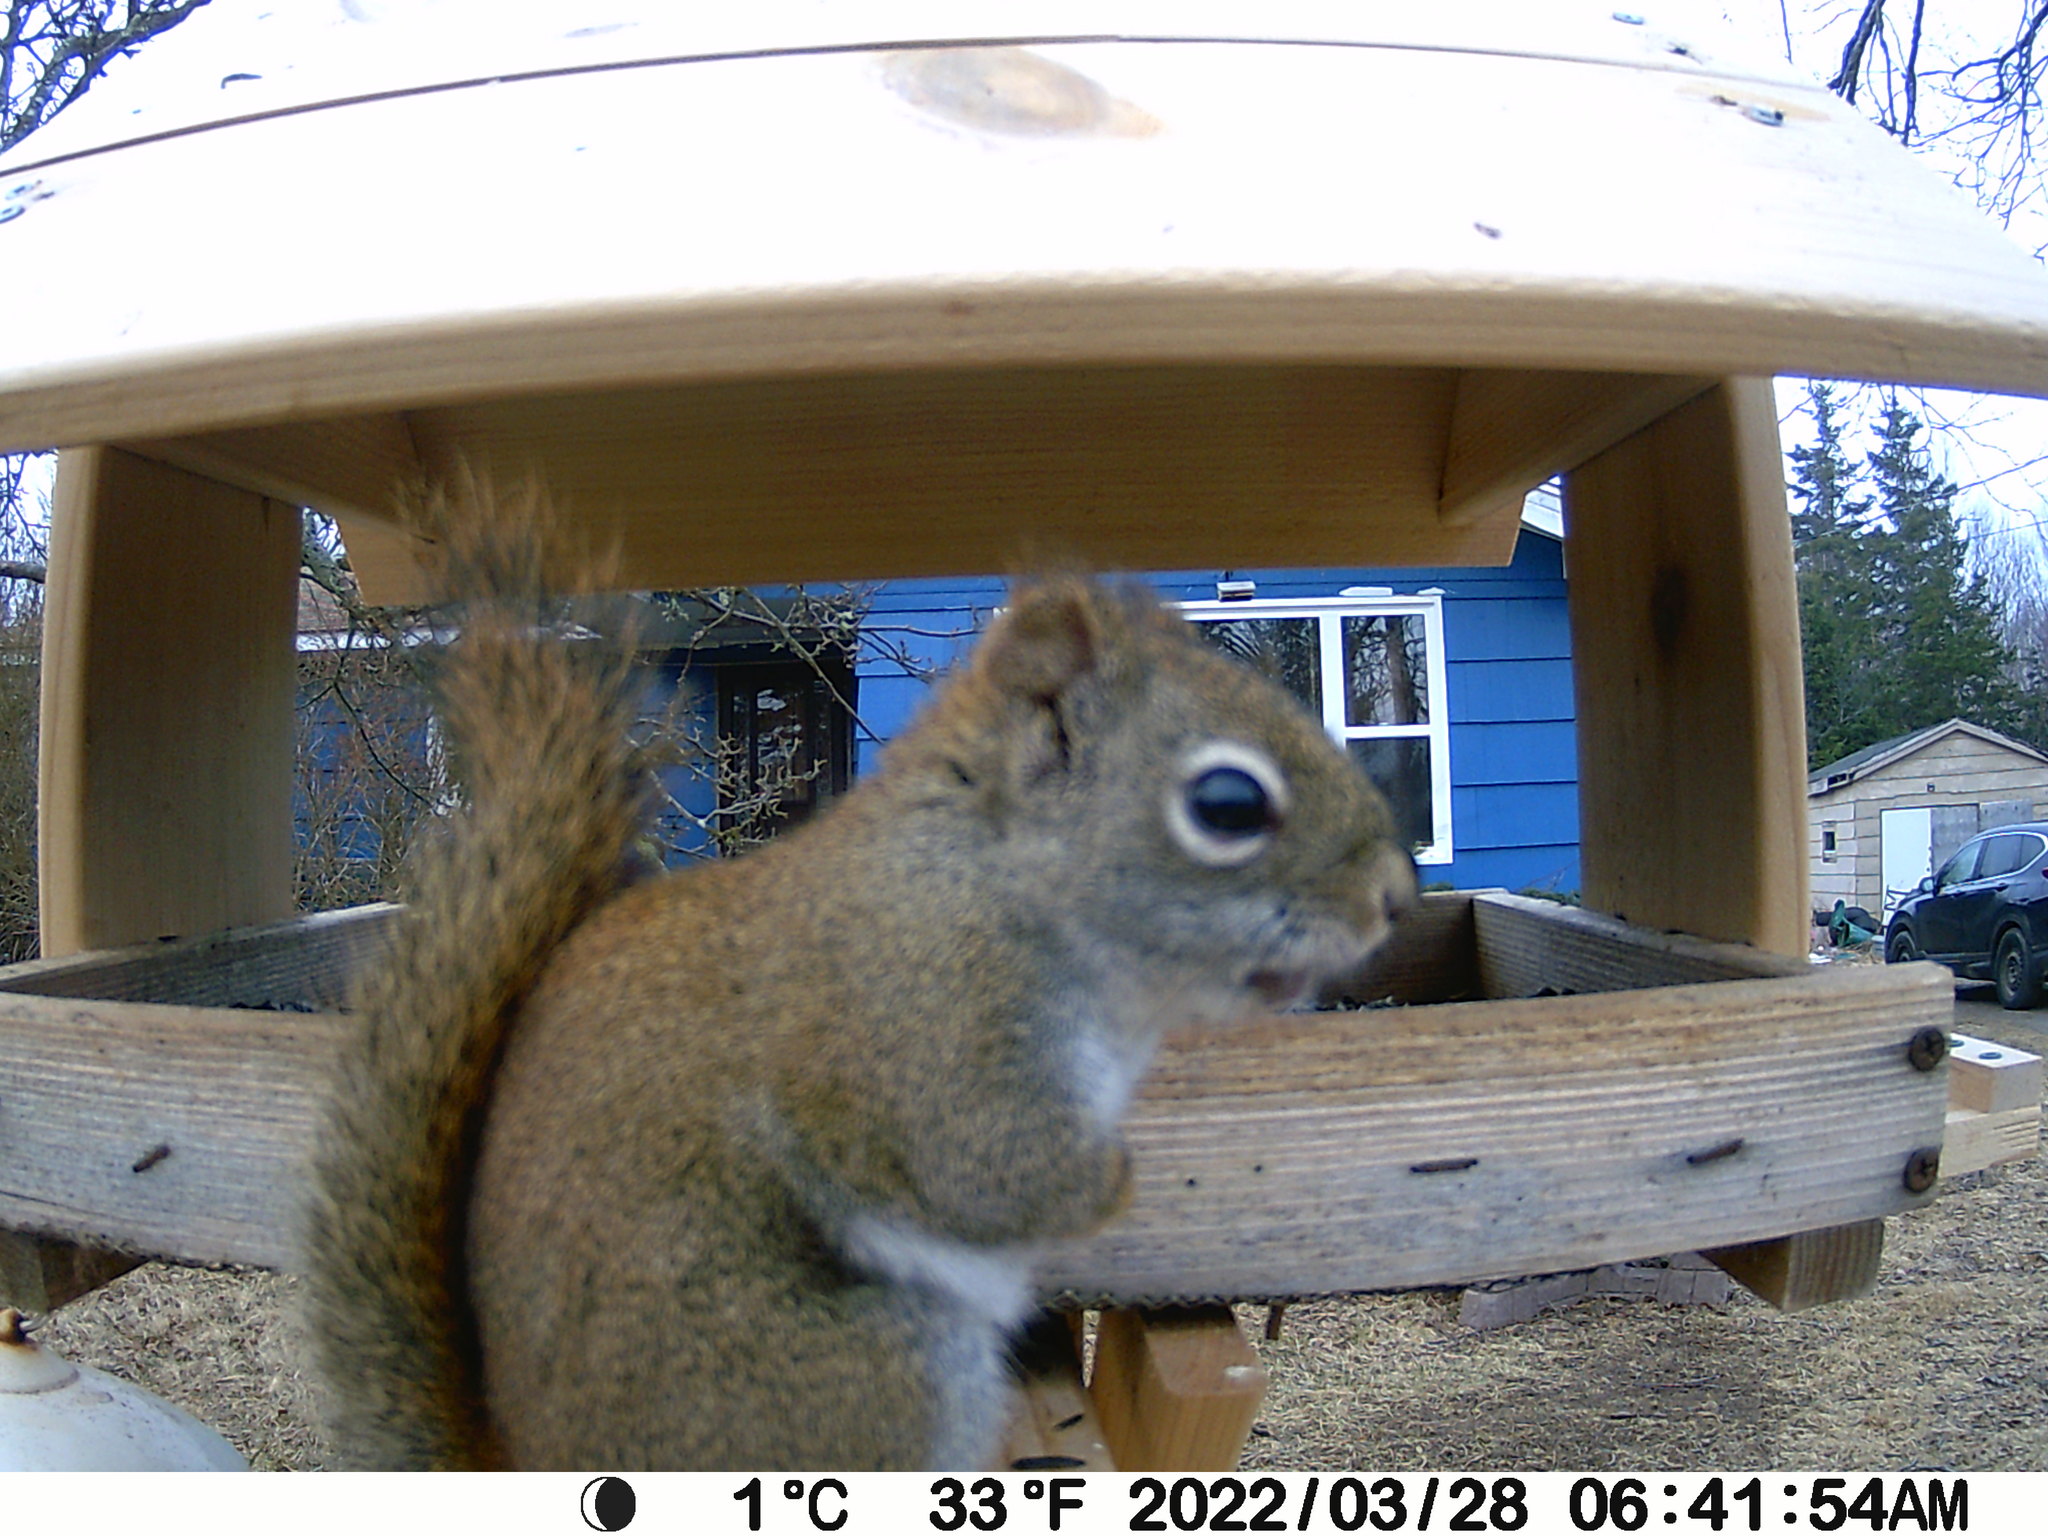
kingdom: Animalia
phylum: Chordata
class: Mammalia
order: Rodentia
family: Sciuridae
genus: Tamiasciurus
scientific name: Tamiasciurus hudsonicus
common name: Red squirrel
